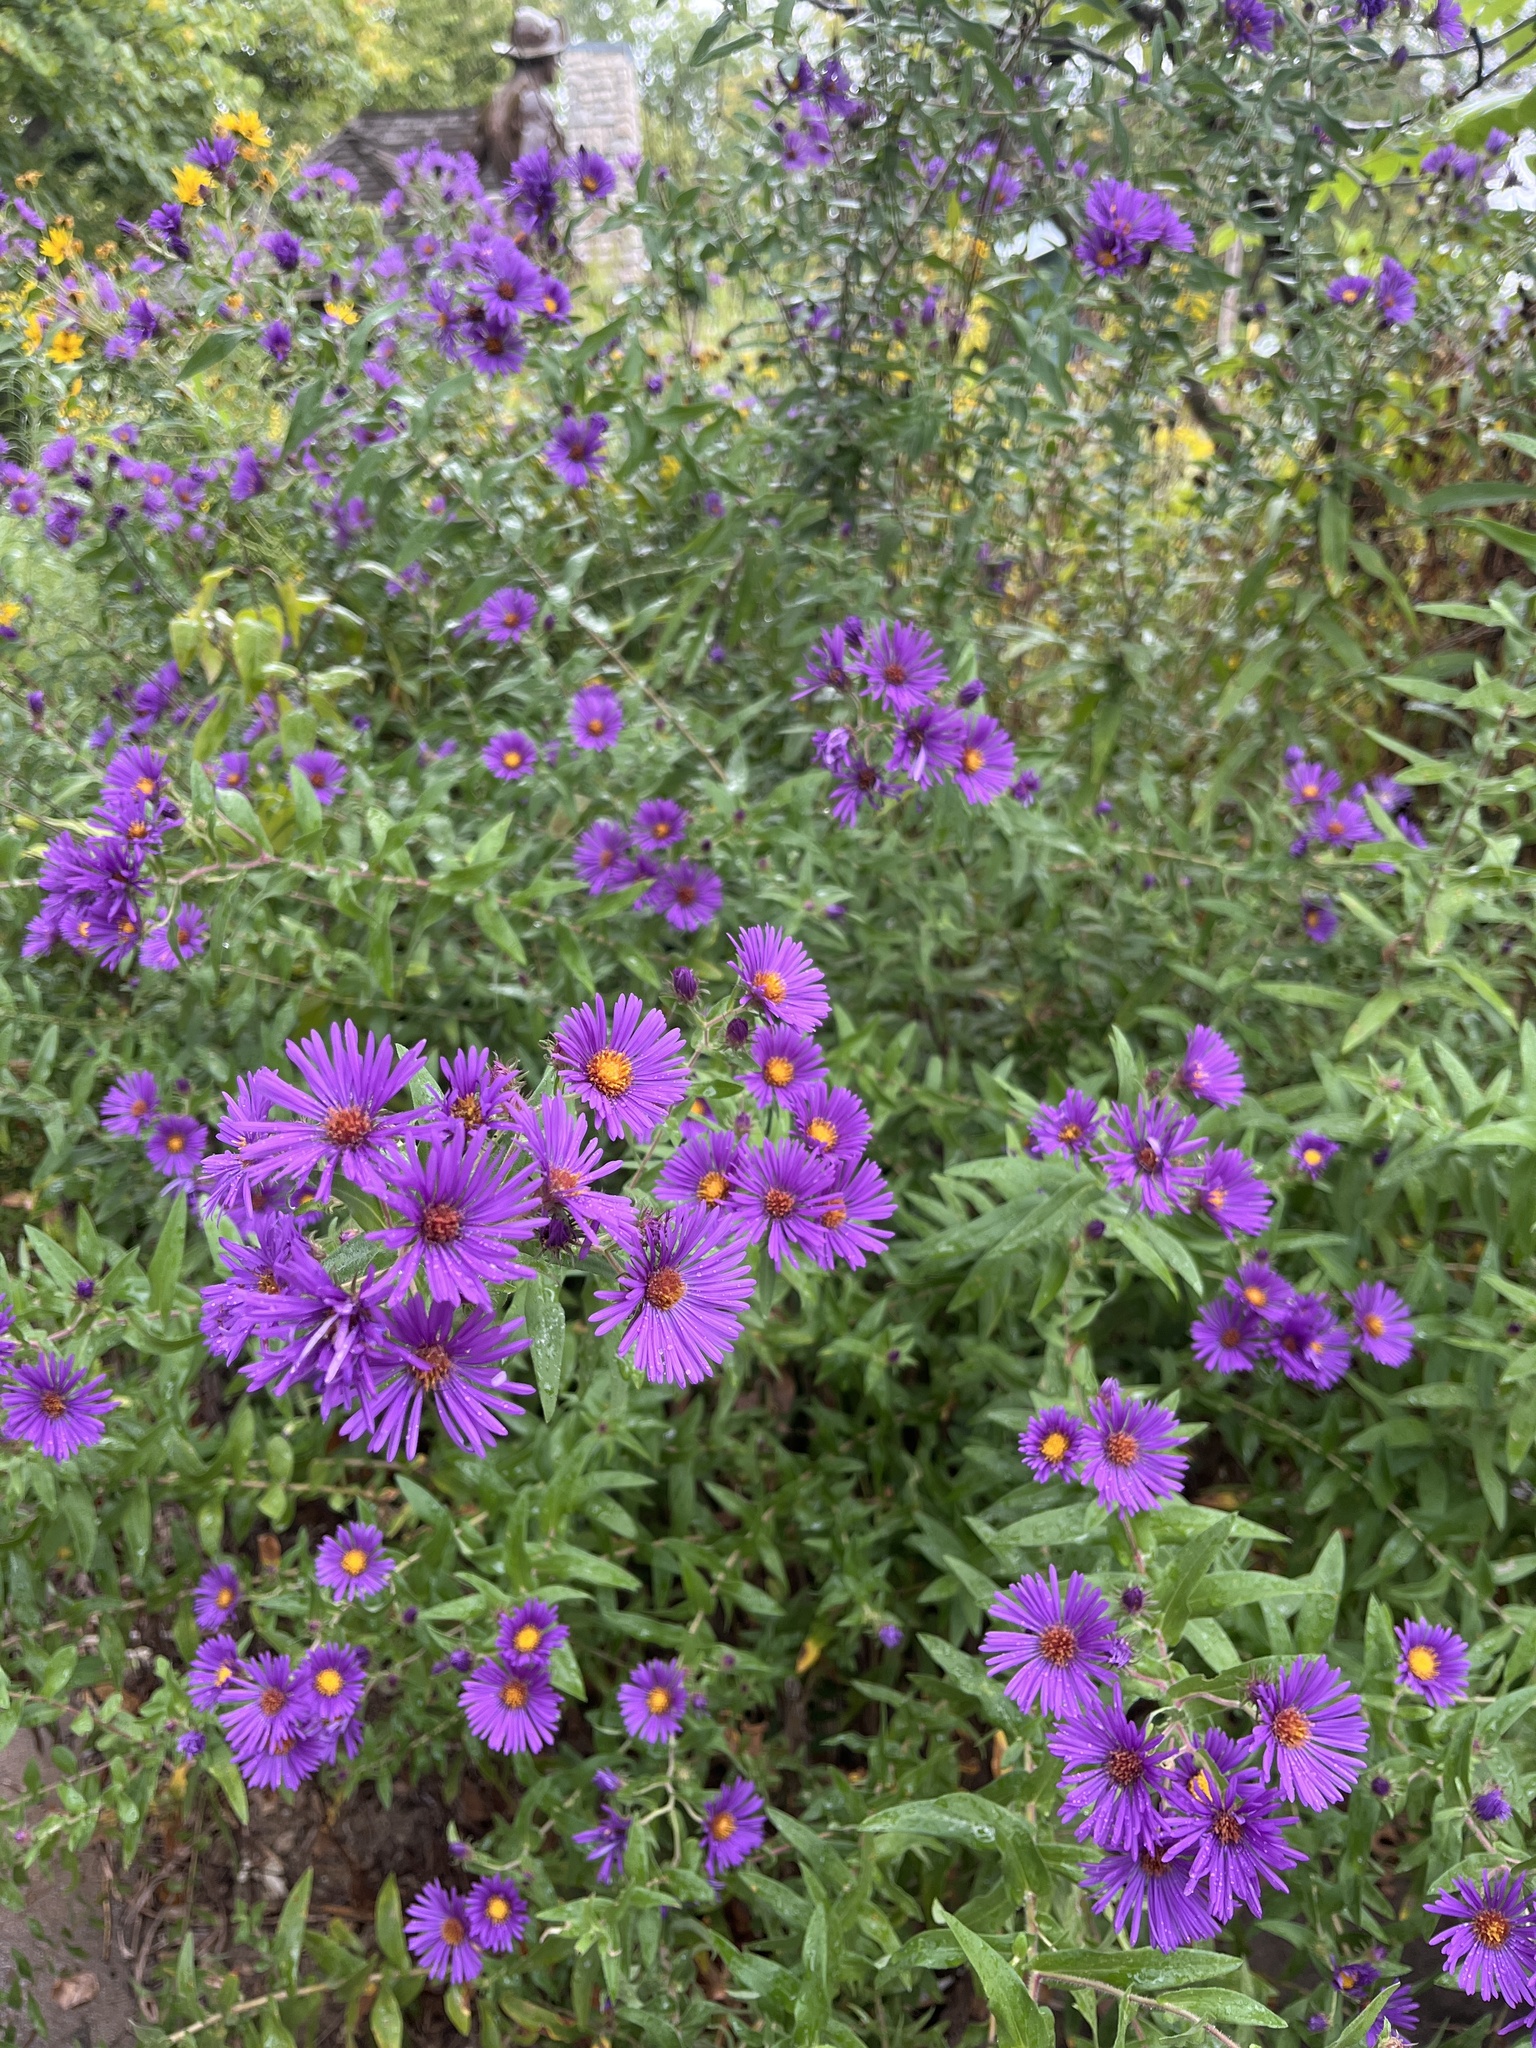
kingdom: Plantae
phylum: Tracheophyta
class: Magnoliopsida
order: Asterales
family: Asteraceae
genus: Symphyotrichum
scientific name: Symphyotrichum novae-angliae
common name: Michaelmas daisy
